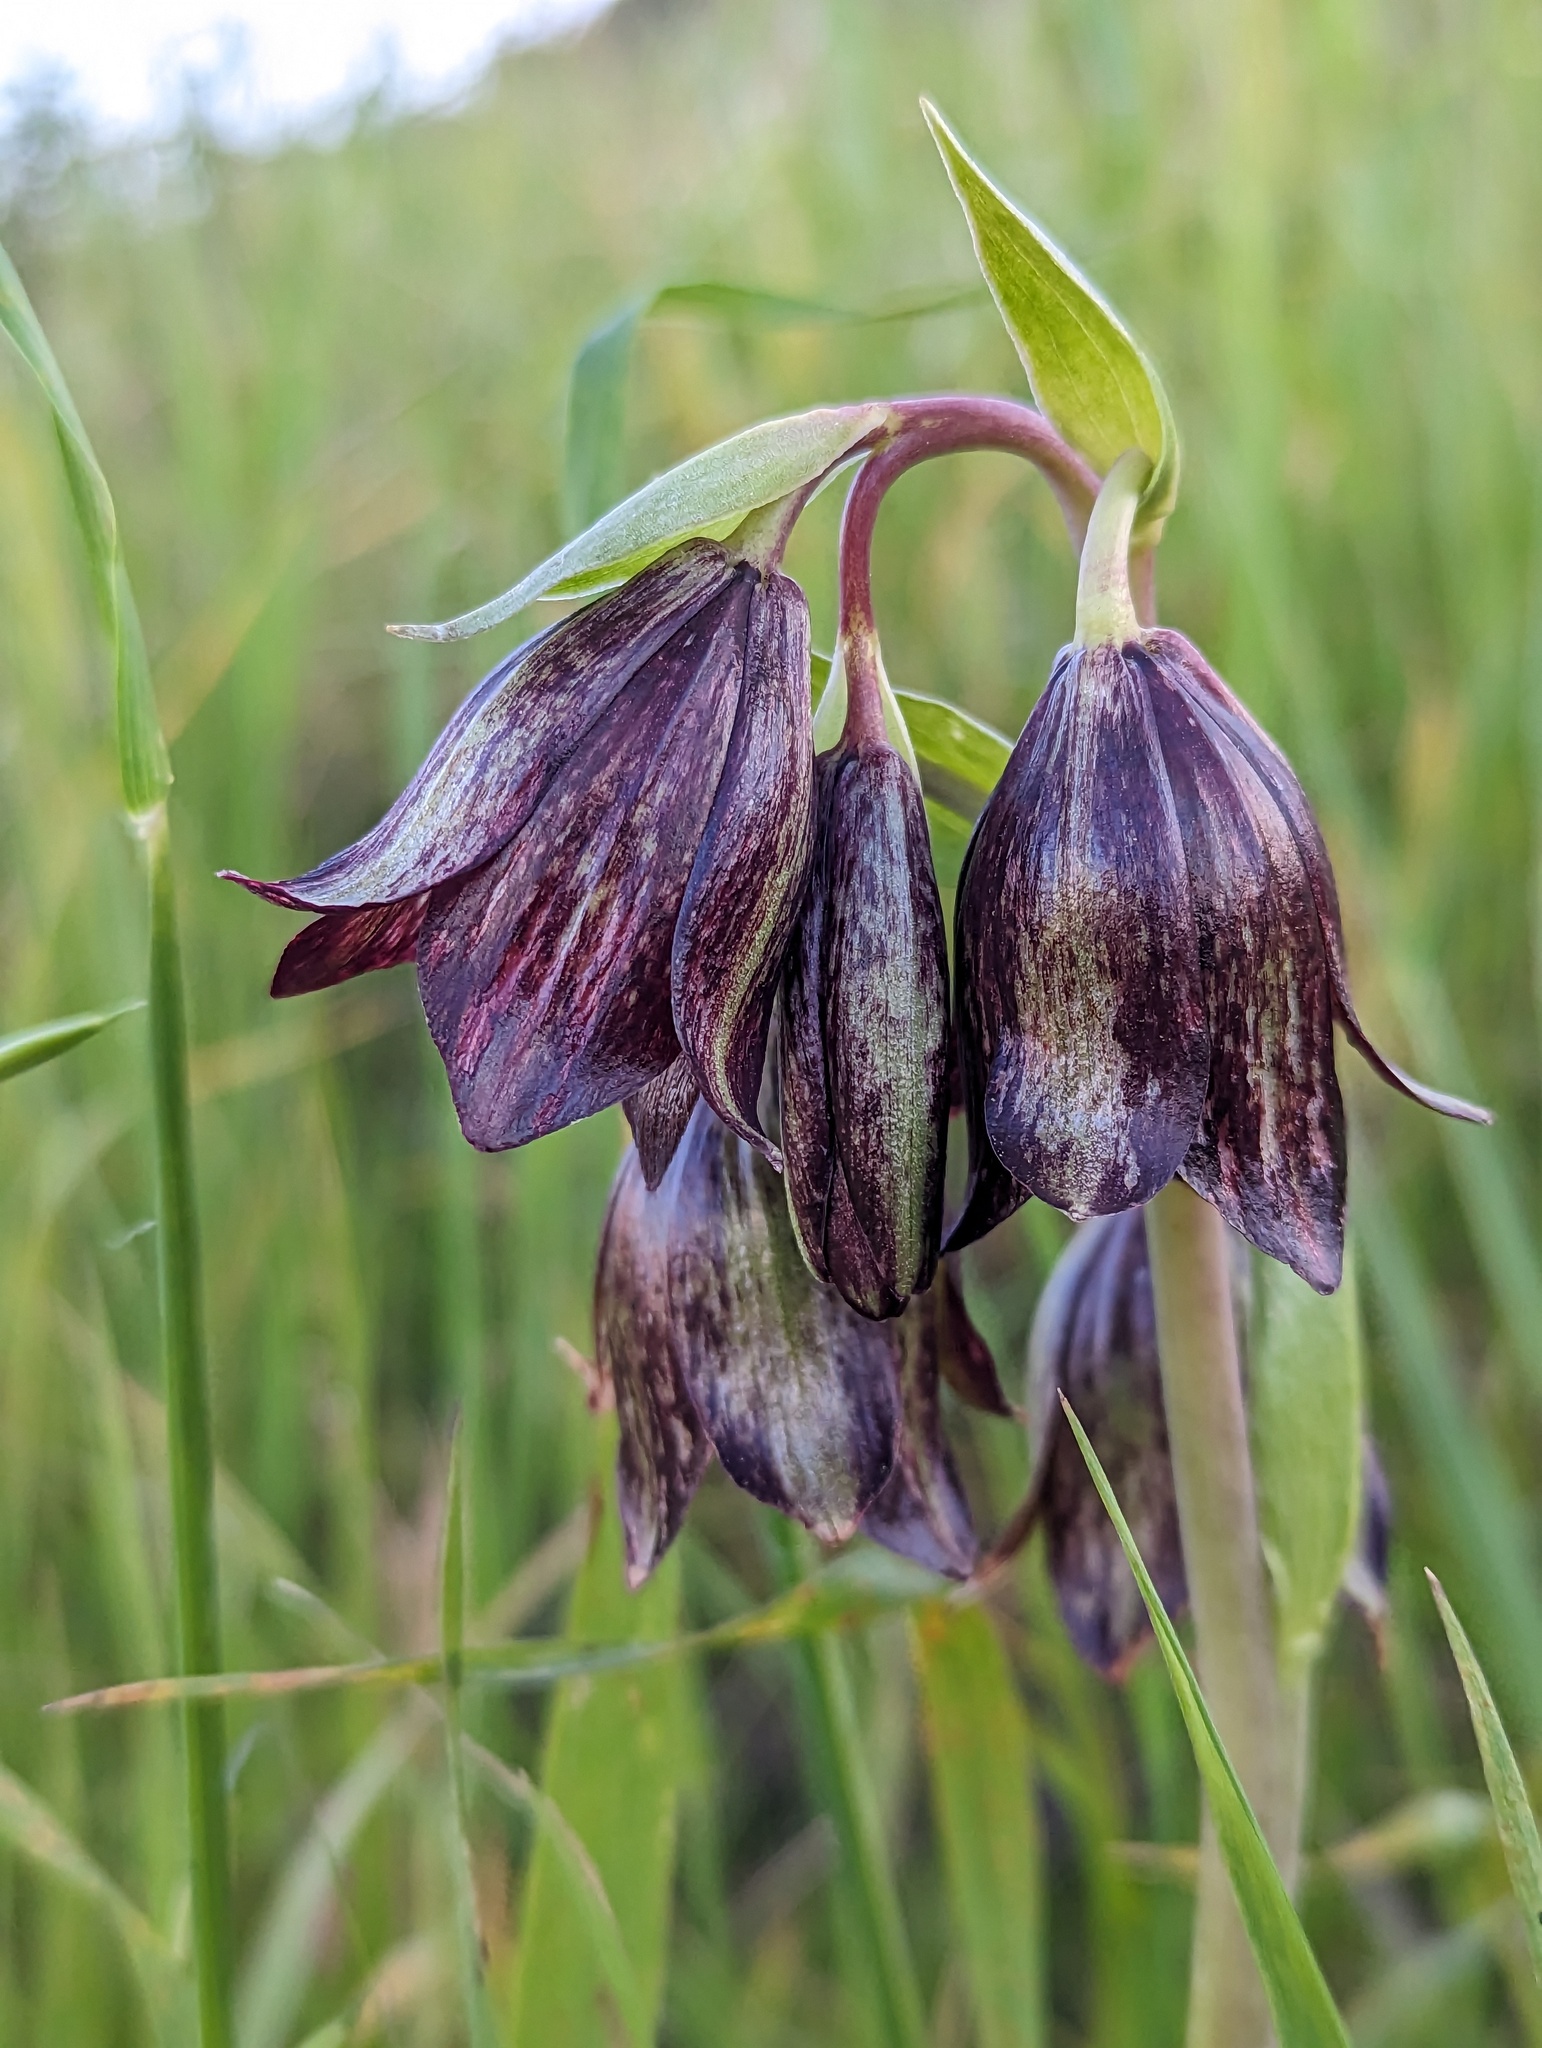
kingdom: Plantae
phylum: Tracheophyta
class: Liliopsida
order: Liliales
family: Liliaceae
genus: Fritillaria
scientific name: Fritillaria biflora
